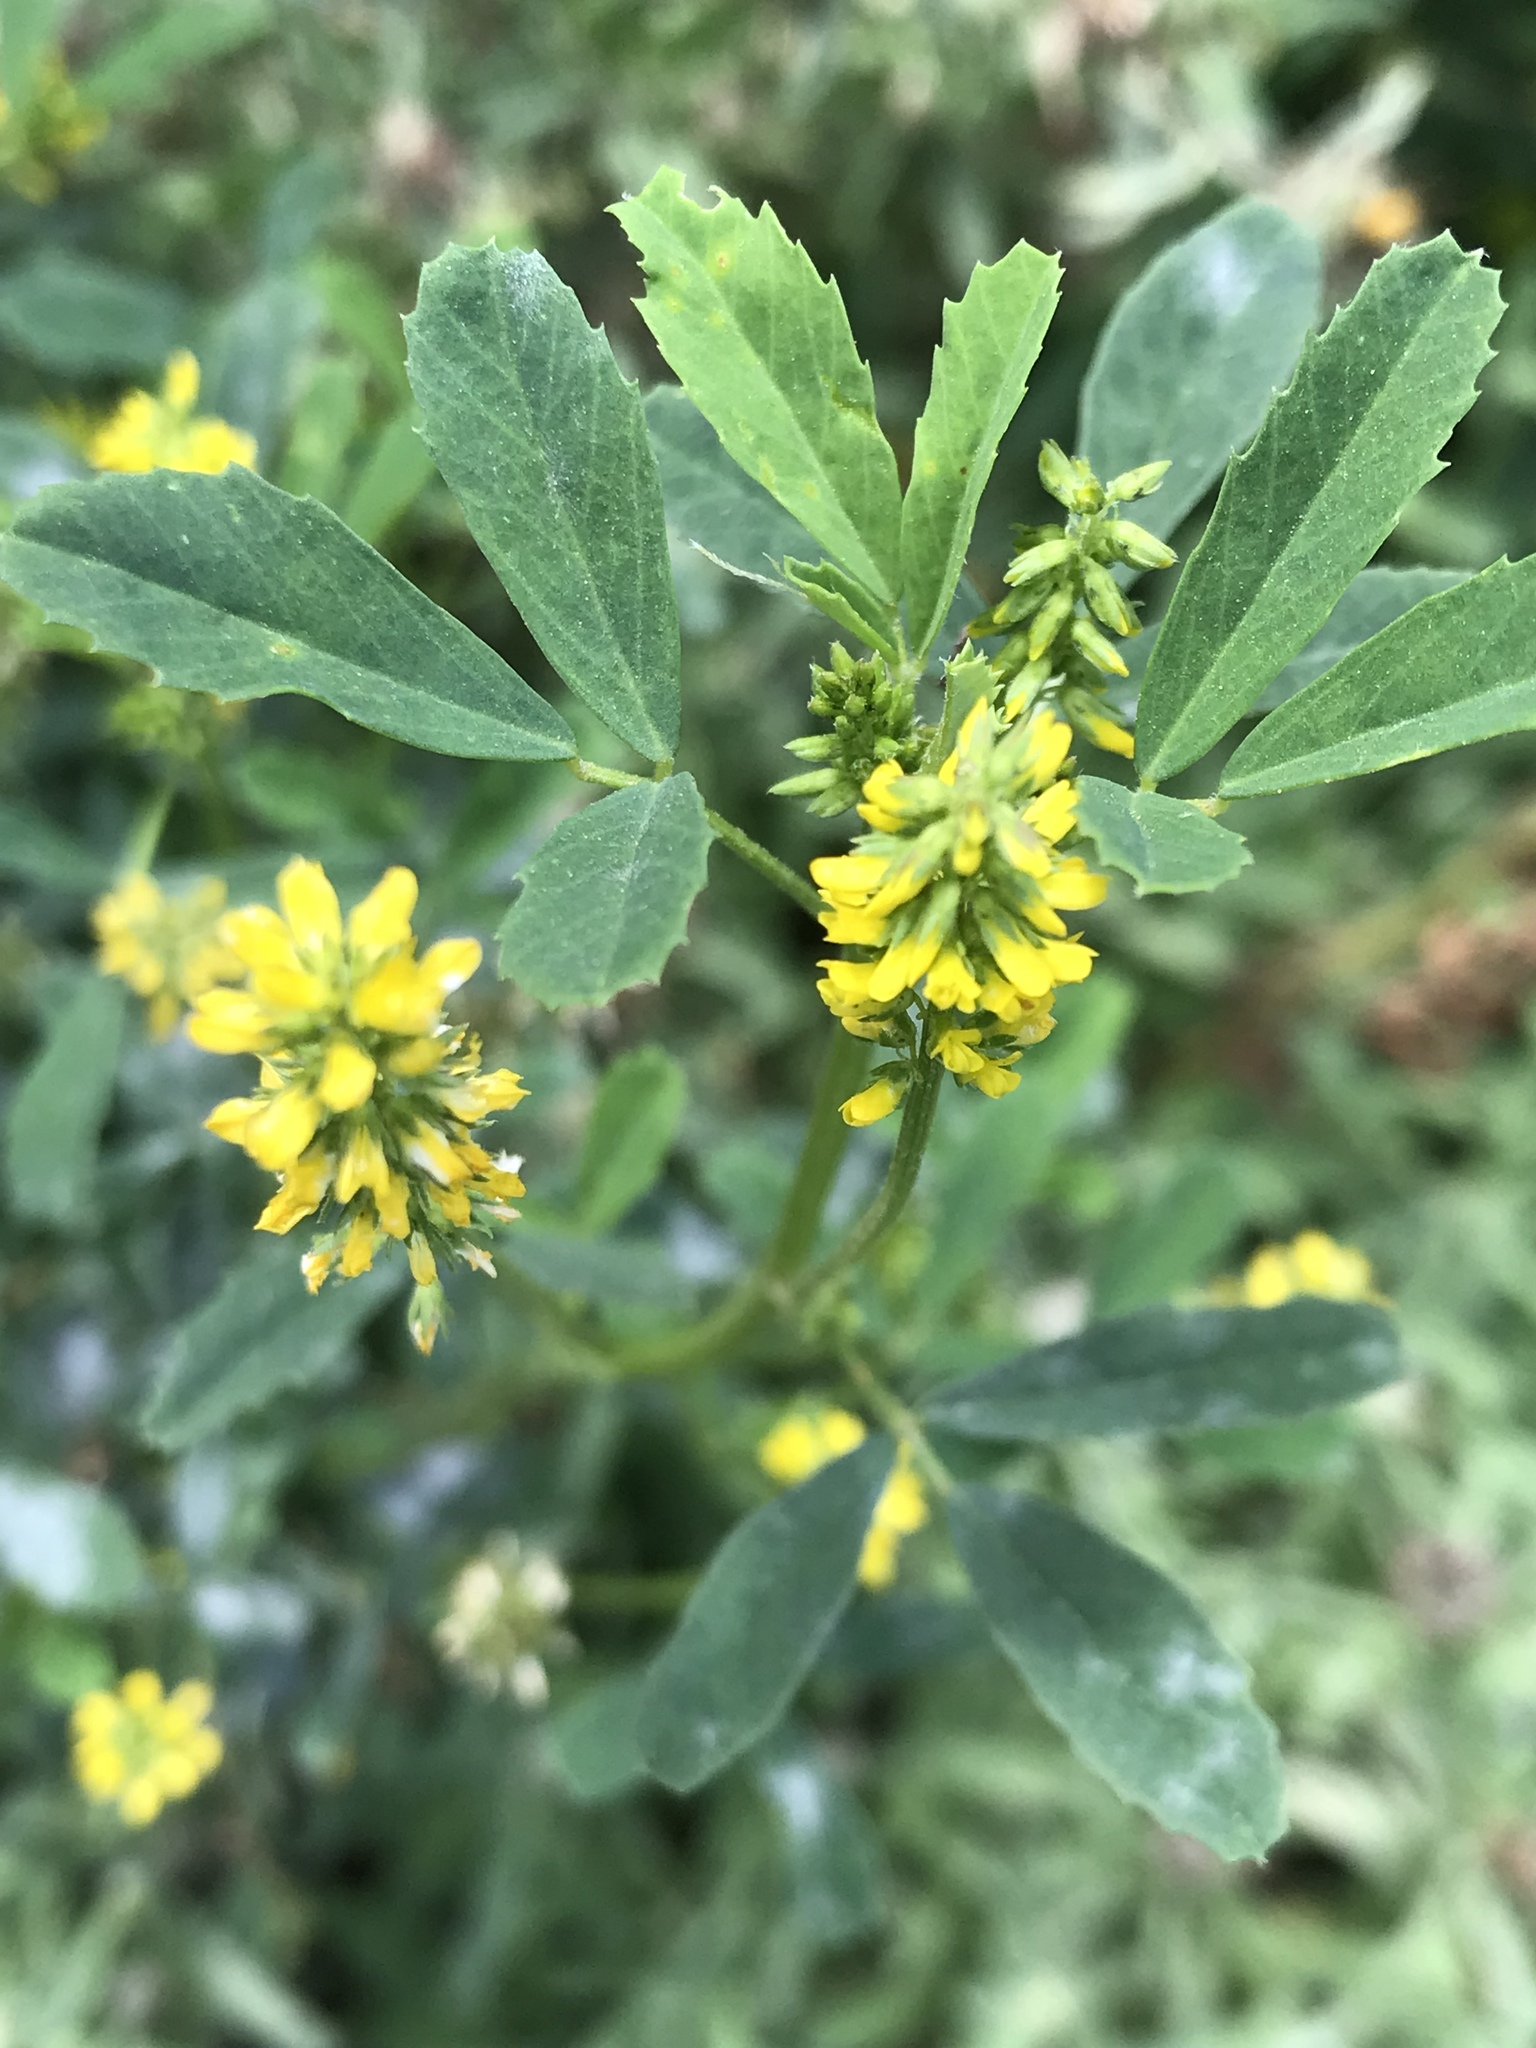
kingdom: Plantae
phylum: Tracheophyta
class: Magnoliopsida
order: Fabales
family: Fabaceae
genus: Melilotus
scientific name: Melilotus indicus
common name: Small melilot
